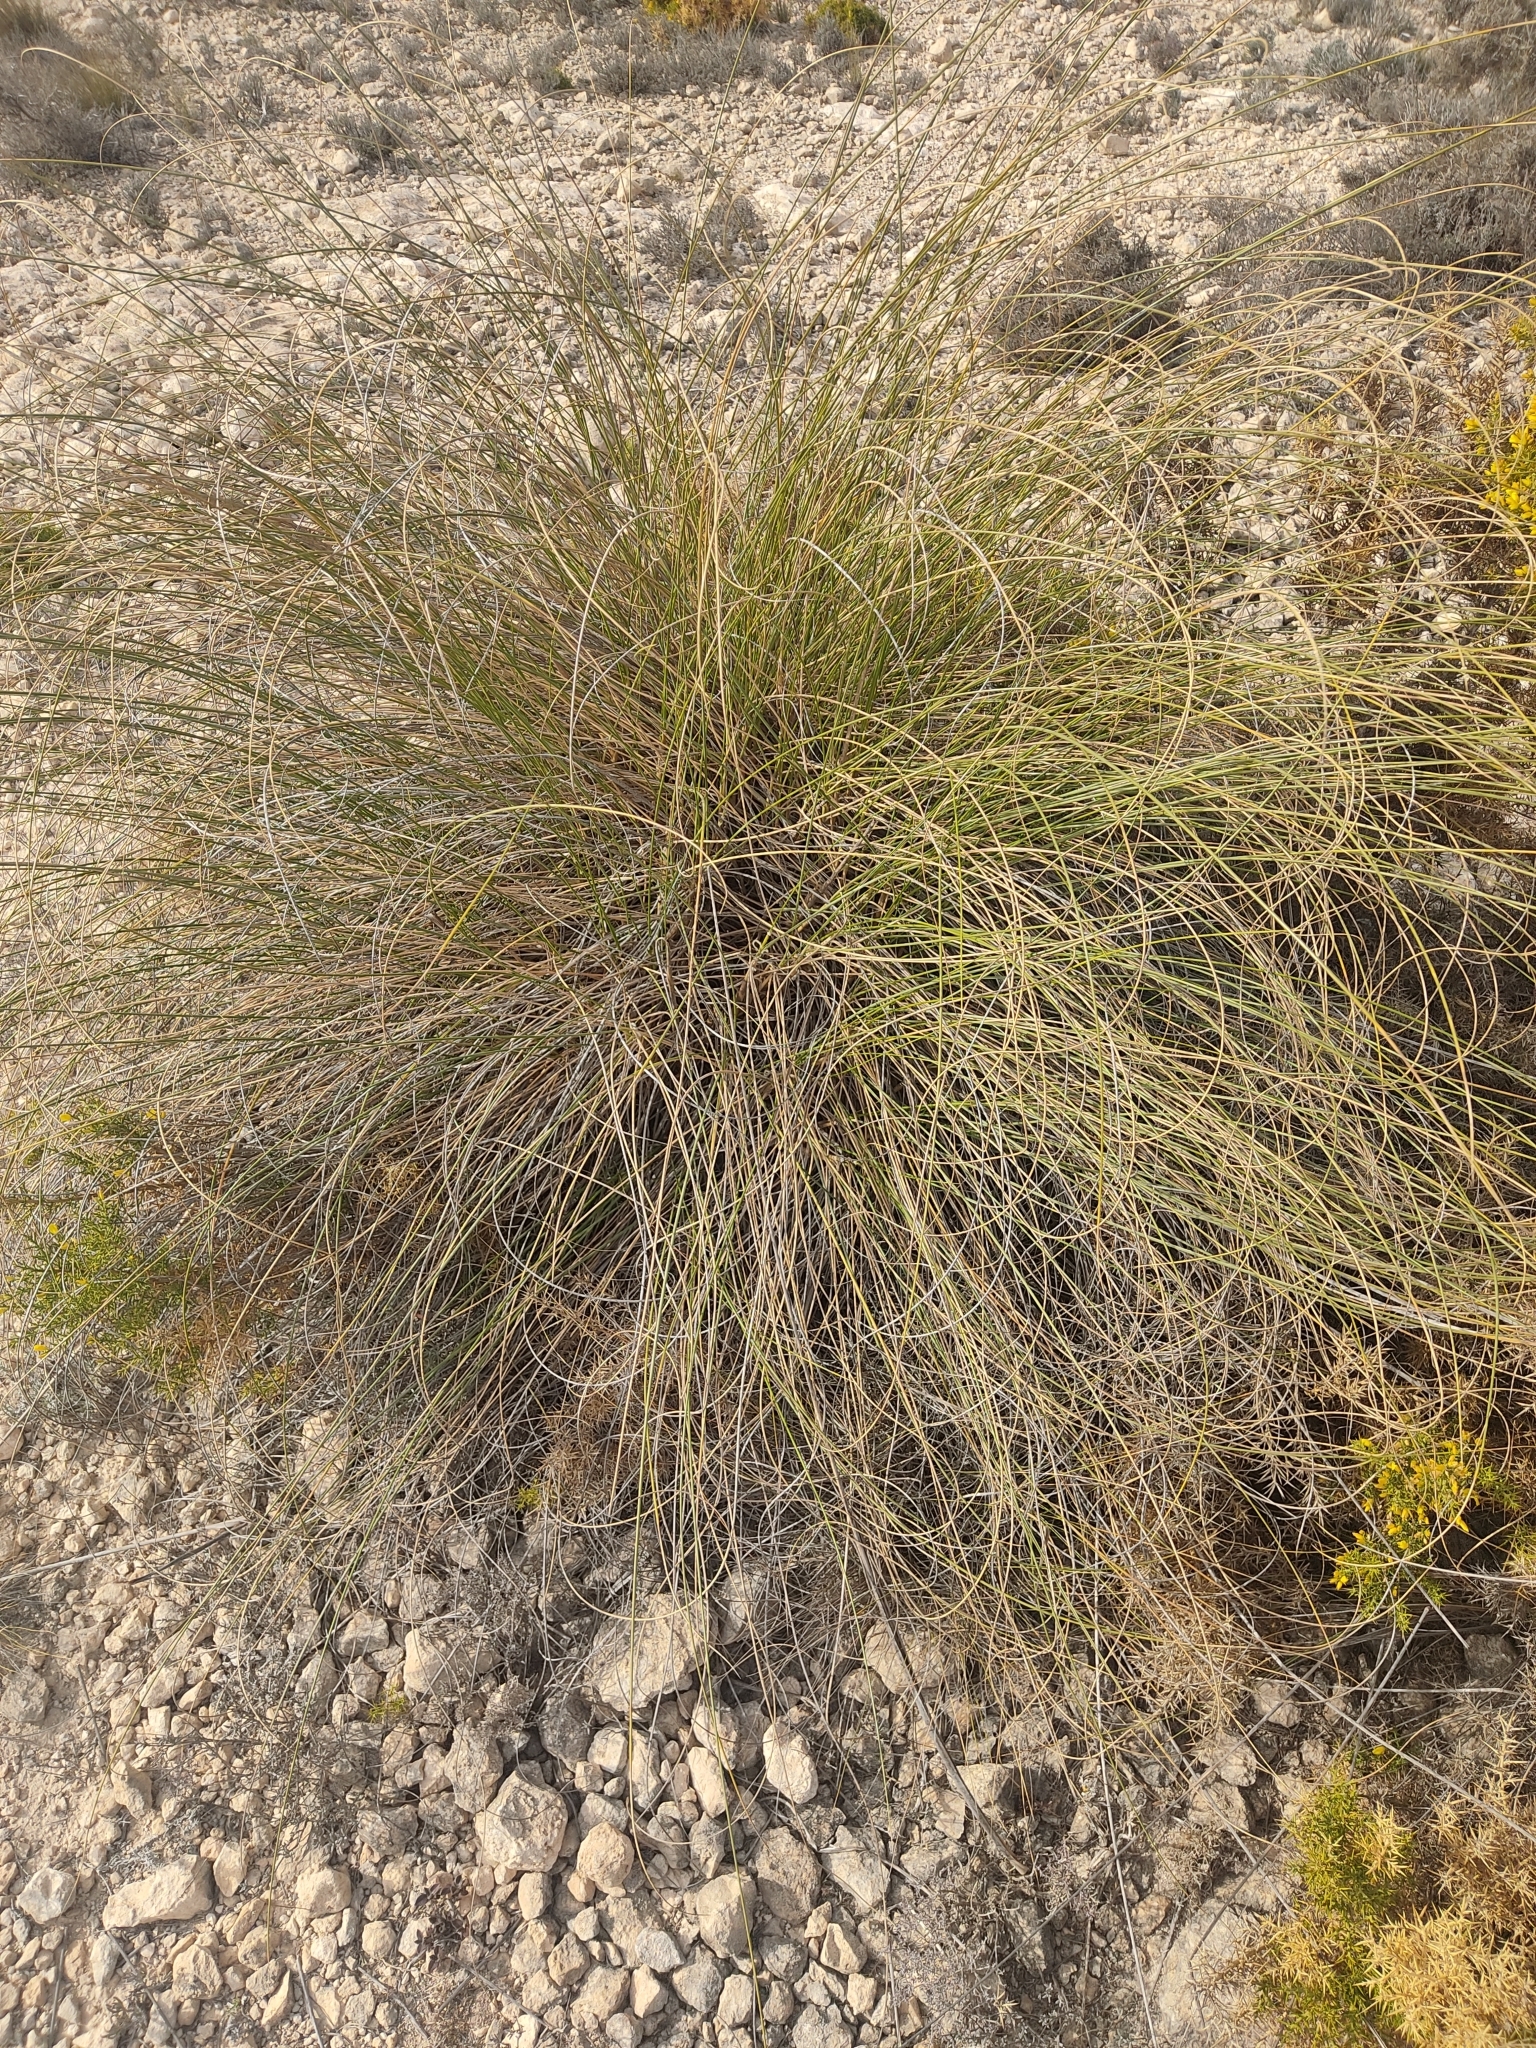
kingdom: Plantae
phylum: Tracheophyta
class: Liliopsida
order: Poales
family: Poaceae
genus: Macrochloa
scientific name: Macrochloa tenacissima
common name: Alfa grass
